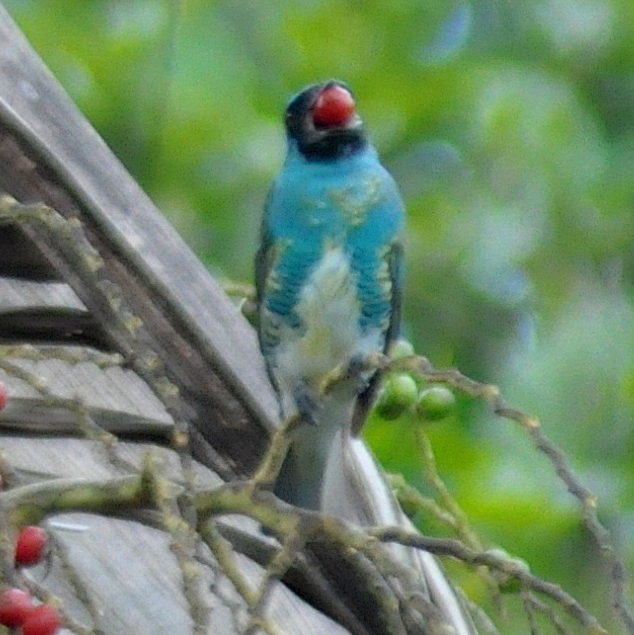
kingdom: Animalia
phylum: Chordata
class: Aves
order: Passeriformes
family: Thraupidae
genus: Tersina
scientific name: Tersina viridis
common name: Swallow tanager
